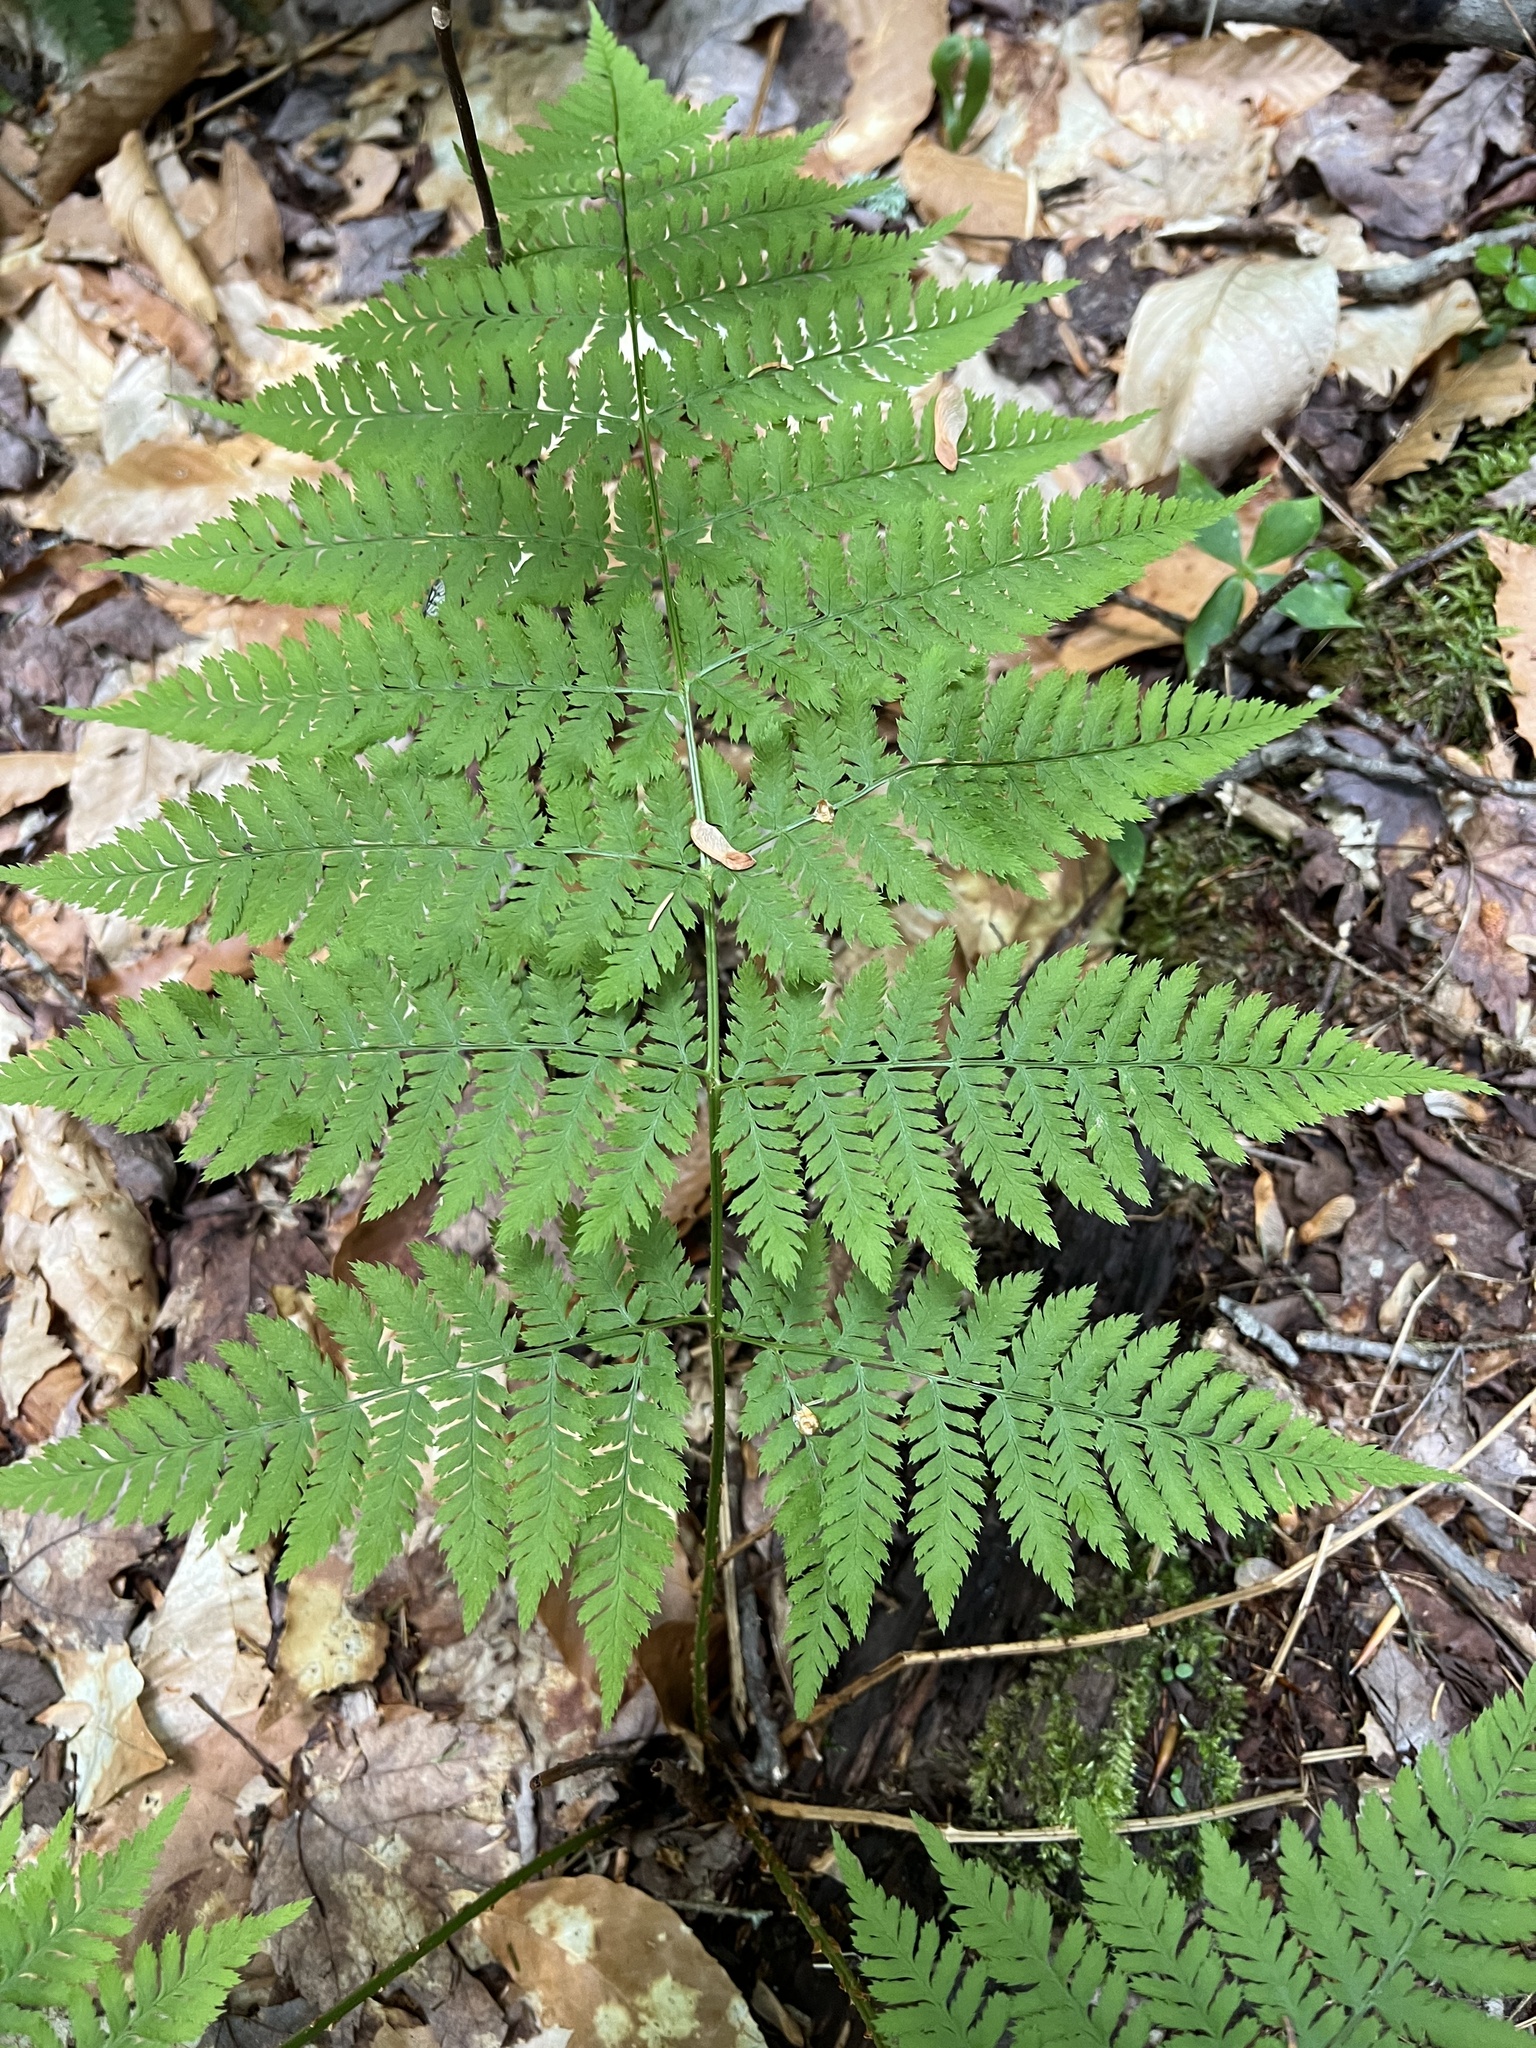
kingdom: Plantae
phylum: Tracheophyta
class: Polypodiopsida
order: Polypodiales
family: Dryopteridaceae
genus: Dryopteris
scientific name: Dryopteris campyloptera
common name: Mountain wood fern
